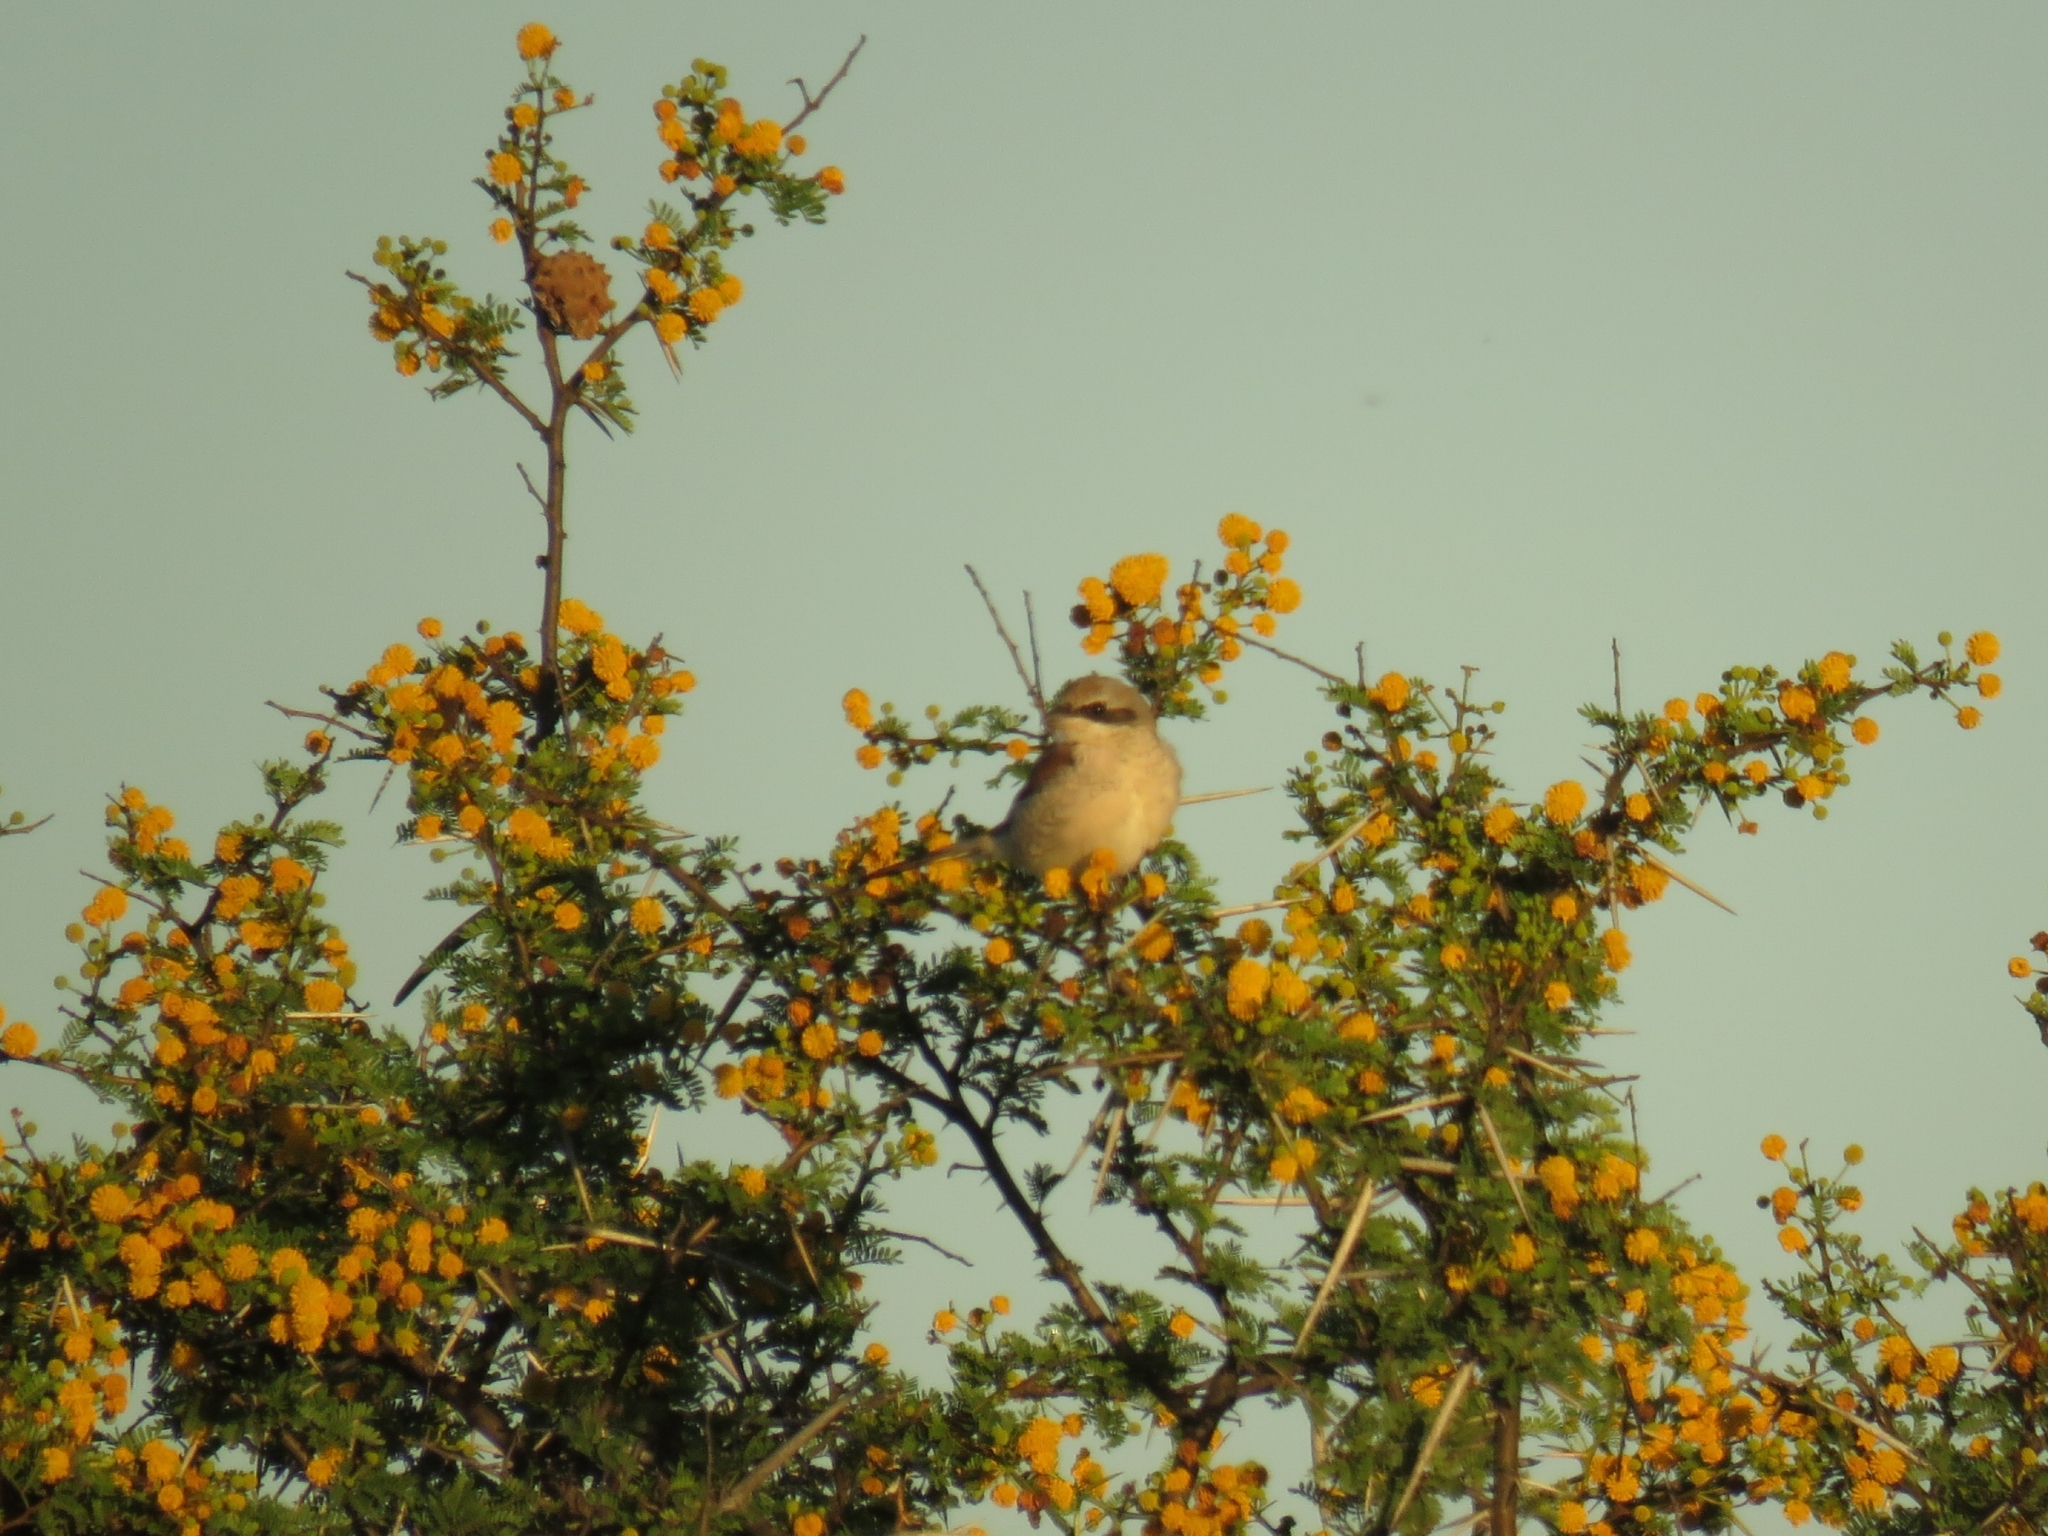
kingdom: Animalia
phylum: Chordata
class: Aves
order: Passeriformes
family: Laniidae
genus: Lanius
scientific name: Lanius collurio
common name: Red-backed shrike
